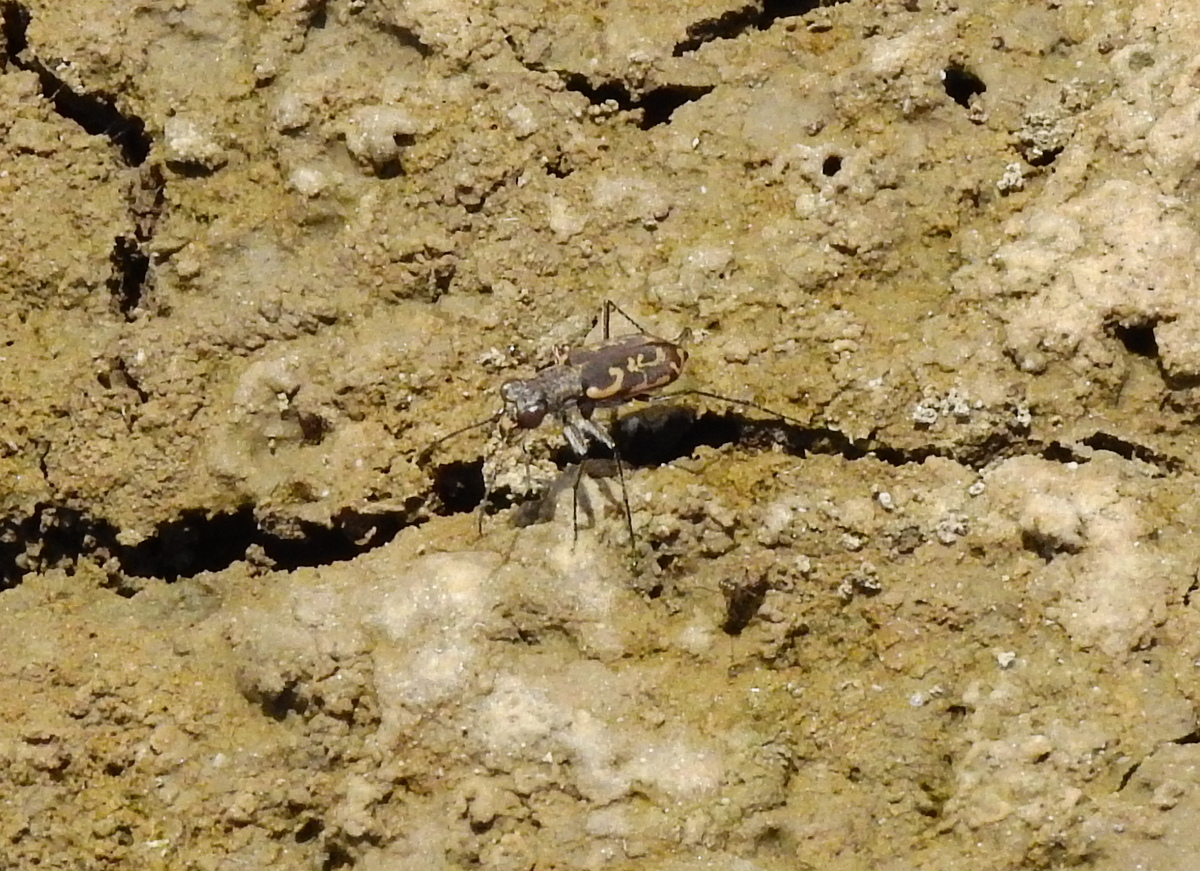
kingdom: Animalia
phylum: Arthropoda
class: Insecta
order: Coleoptera
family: Carabidae
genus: Cylindera
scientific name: Cylindera mixtula
